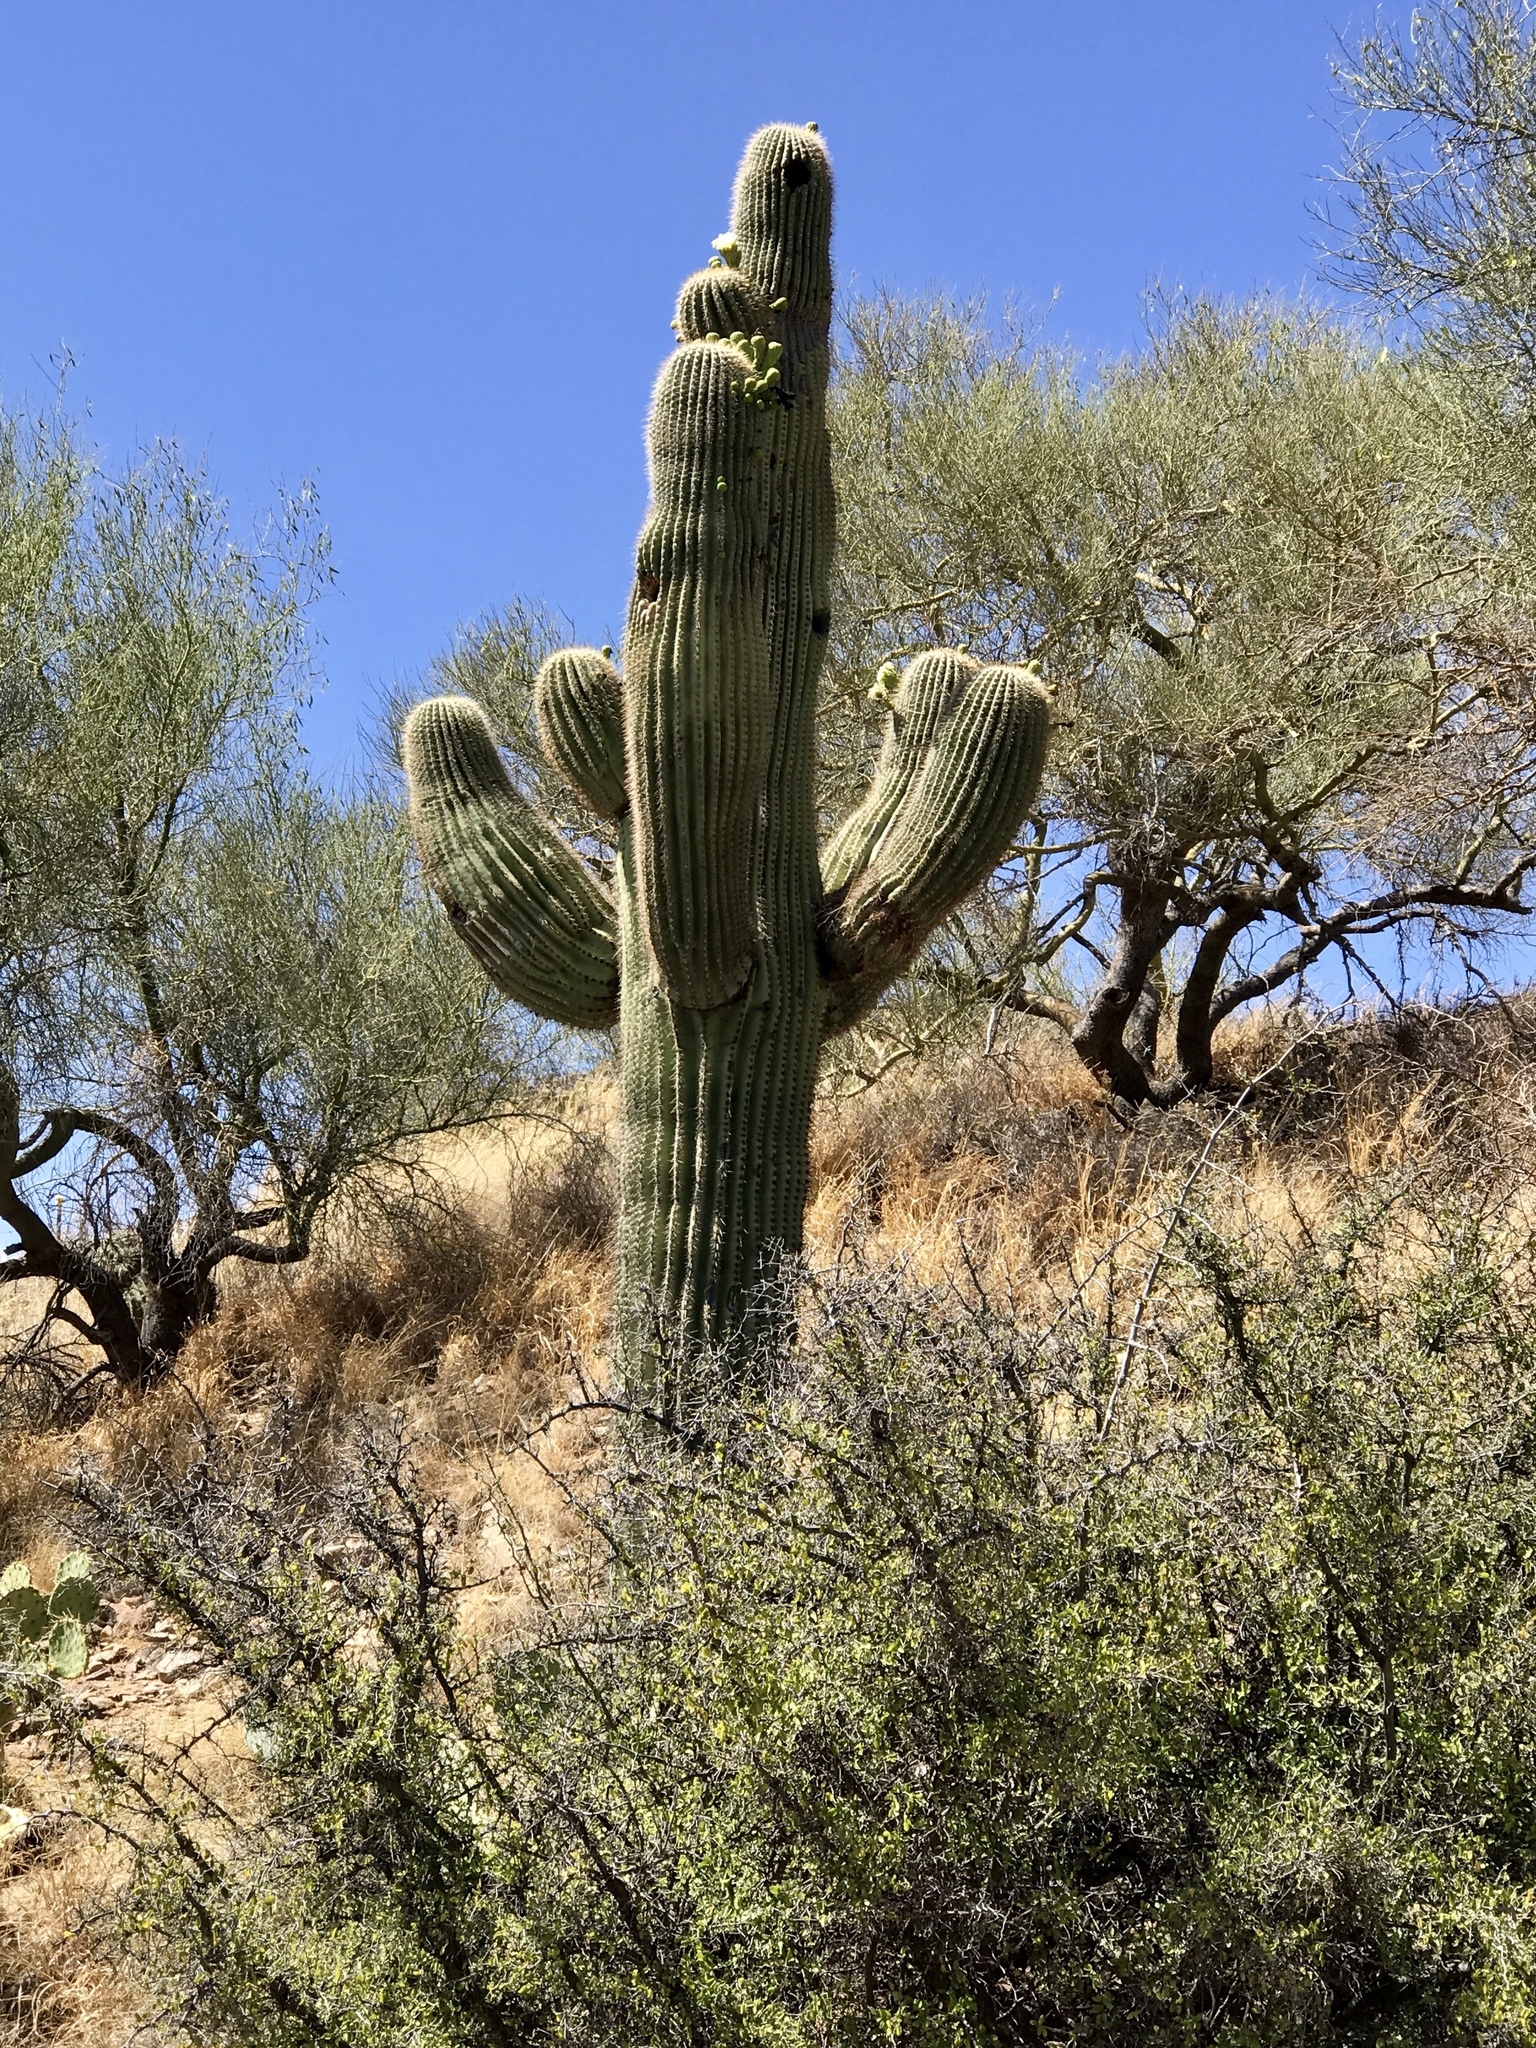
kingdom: Plantae
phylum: Tracheophyta
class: Magnoliopsida
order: Caryophyllales
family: Cactaceae
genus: Carnegiea
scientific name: Carnegiea gigantea
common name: Saguaro
